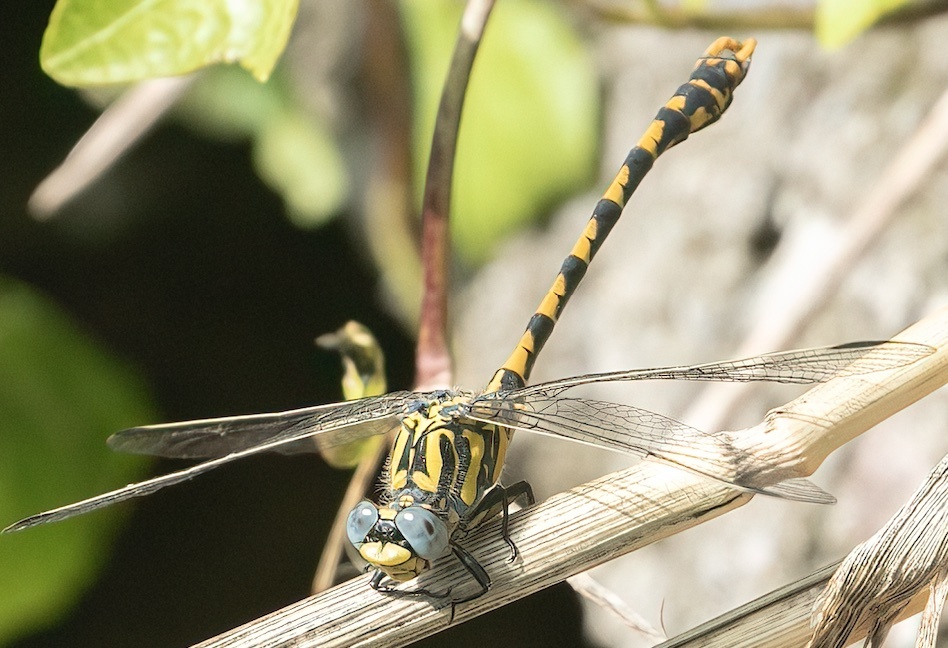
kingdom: Animalia
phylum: Arthropoda
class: Insecta
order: Odonata
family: Gomphidae
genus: Onychogomphus
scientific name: Onychogomphus uncatus
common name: Large pincertail
